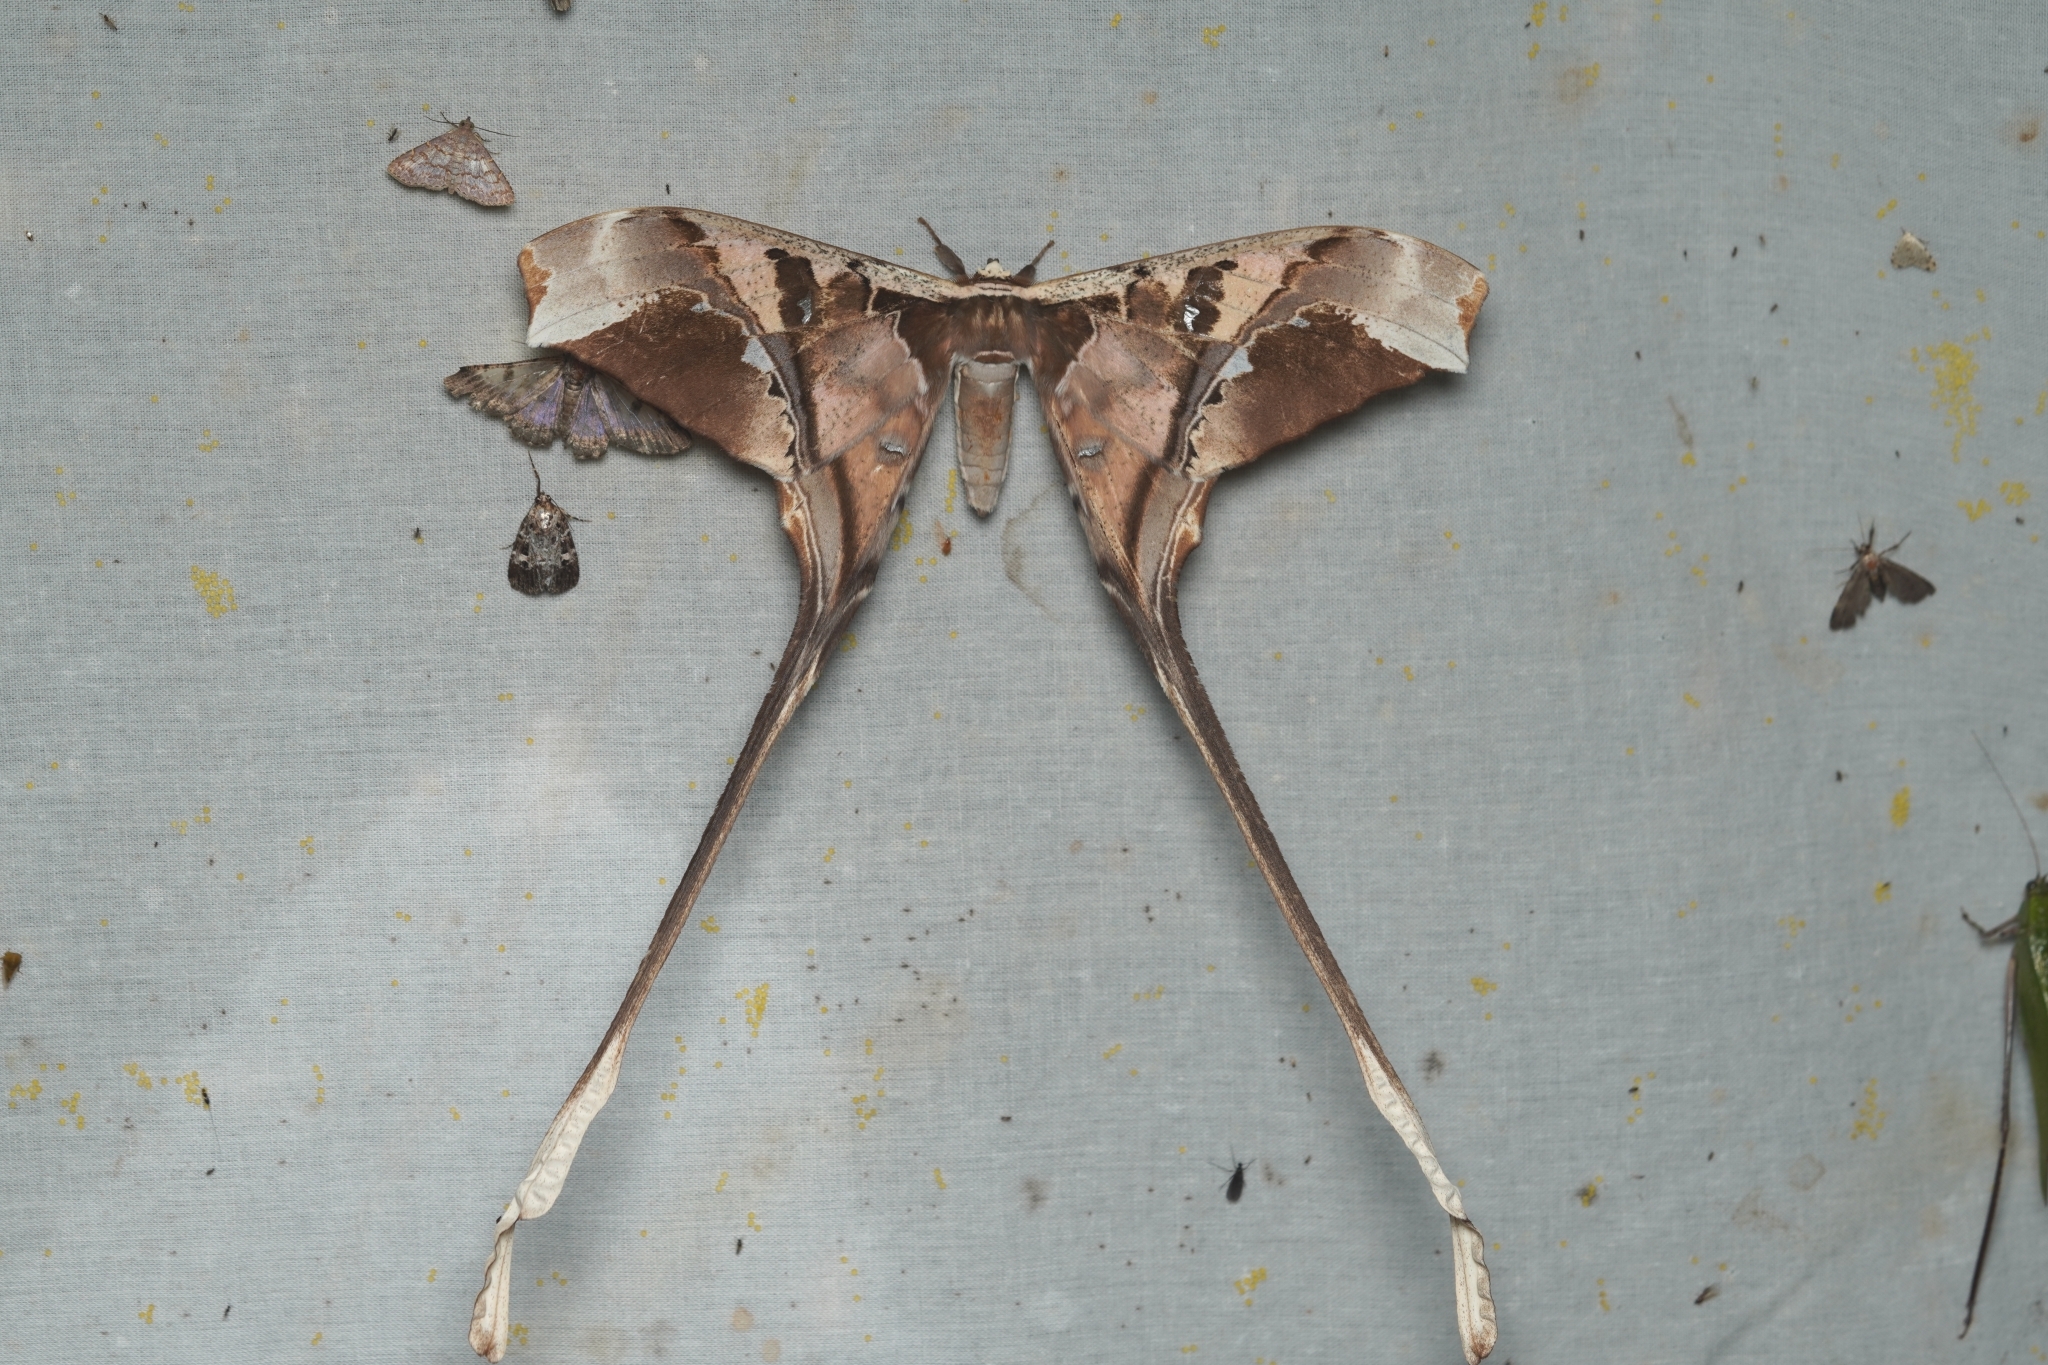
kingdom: Animalia
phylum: Arthropoda
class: Insecta
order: Lepidoptera
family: Saturniidae
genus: Copiopteryx
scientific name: Copiopteryx semiramis
